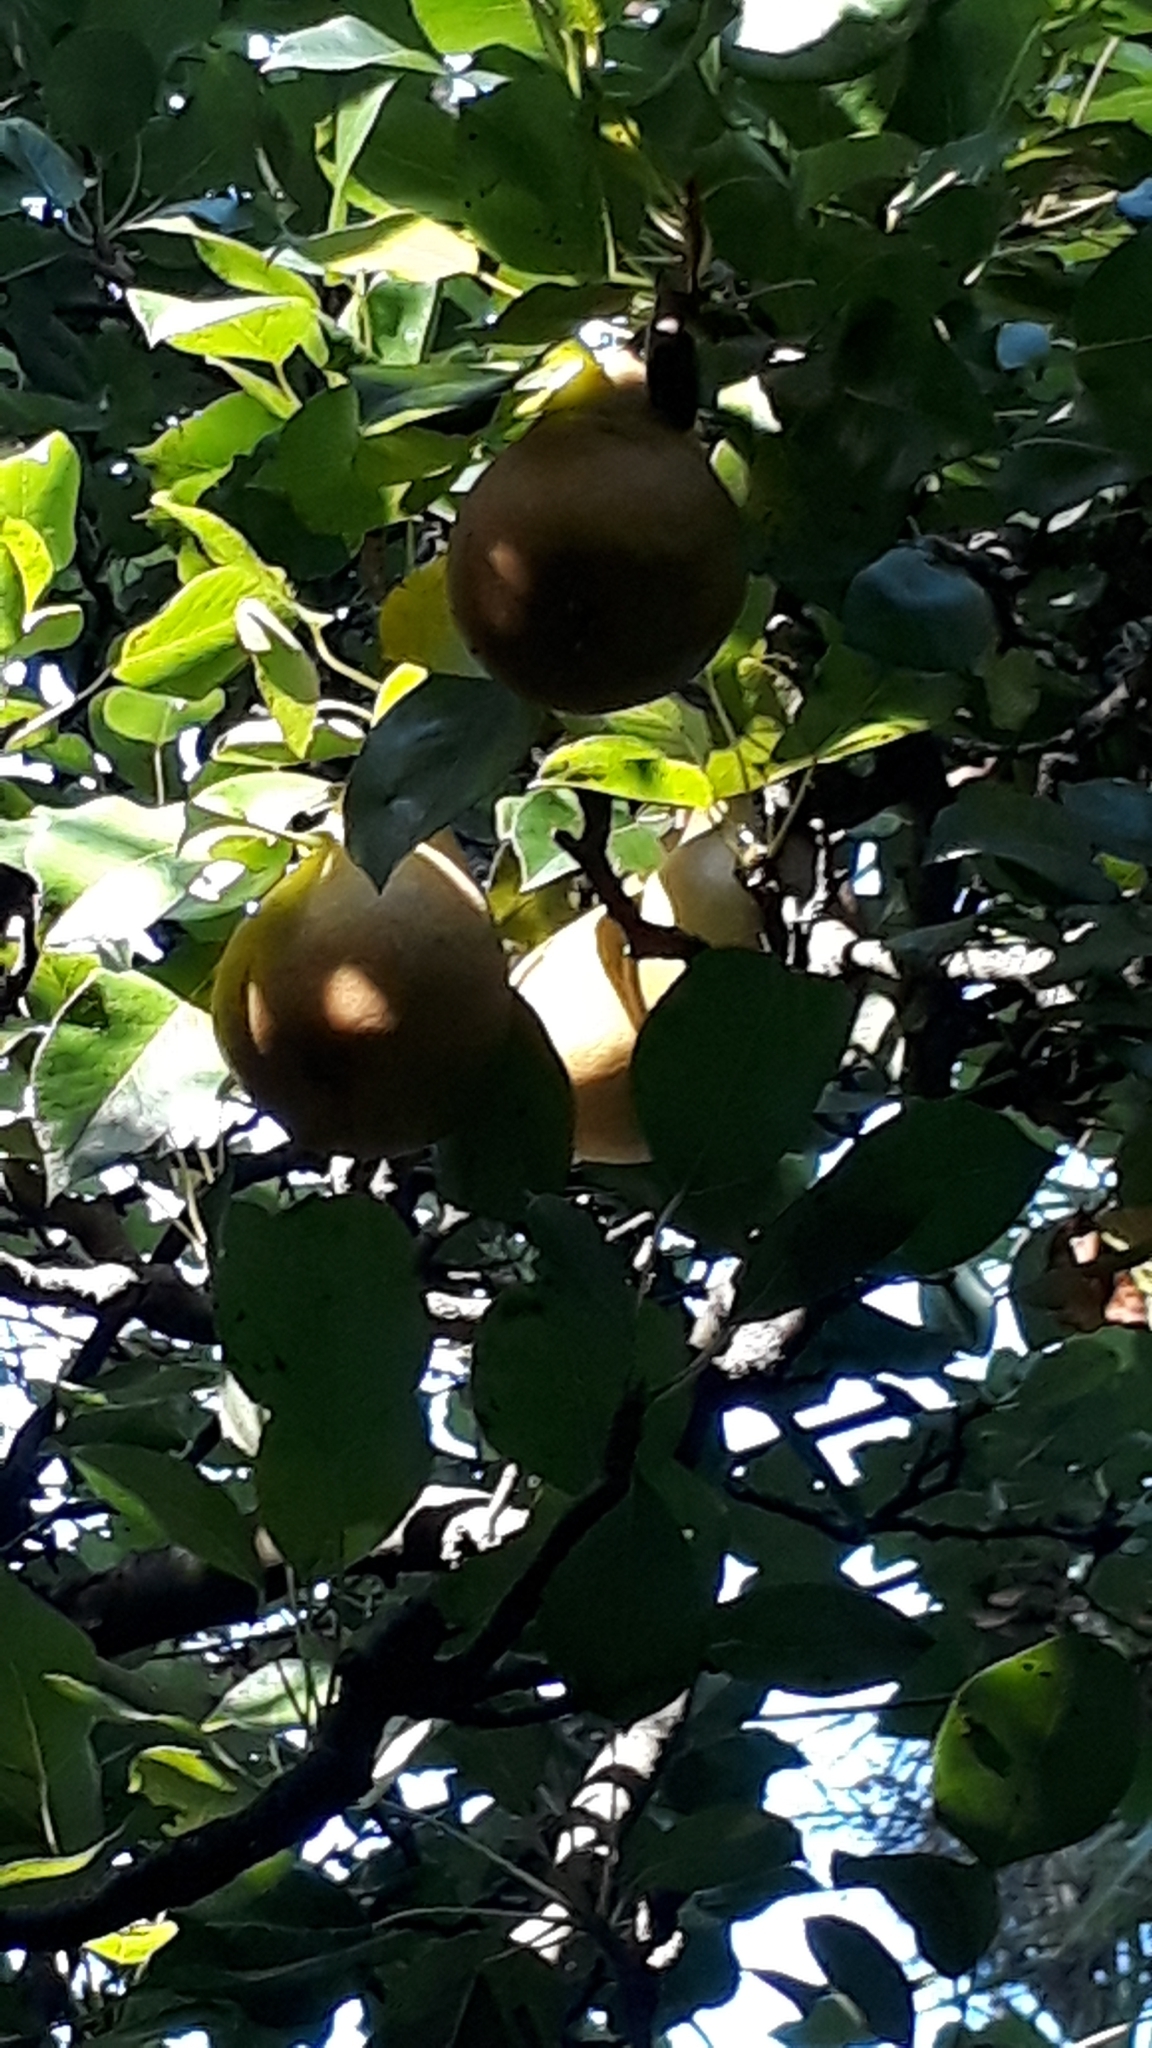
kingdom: Plantae
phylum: Tracheophyta
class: Magnoliopsida
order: Rosales
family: Rosaceae
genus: Pyrus
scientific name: Pyrus communis
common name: Pear
